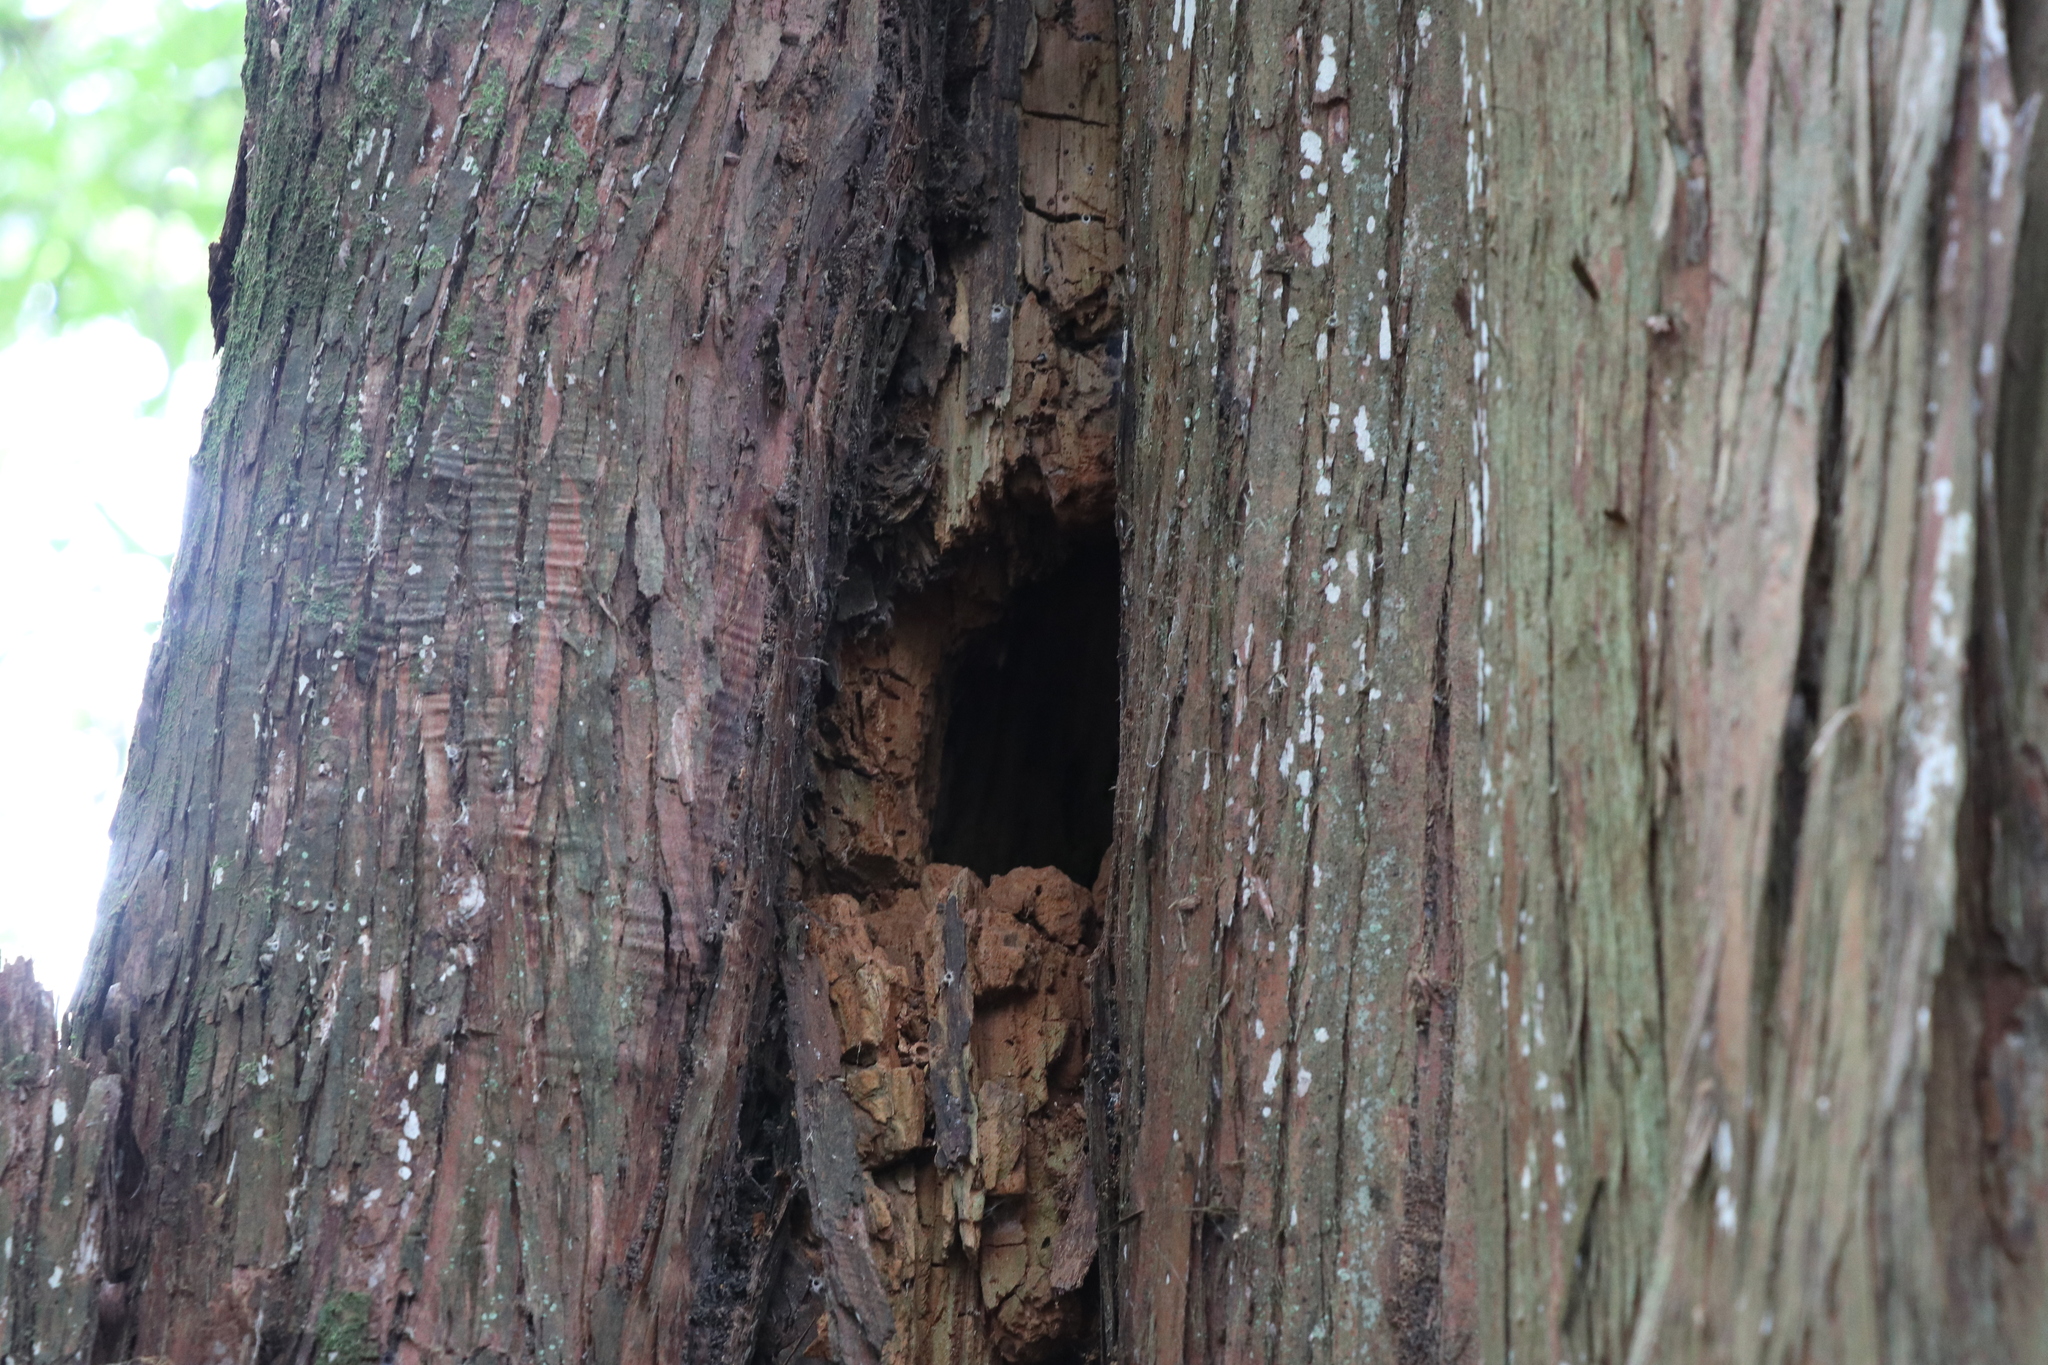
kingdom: Animalia
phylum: Chordata
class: Aves
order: Coraciiformes
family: Alcedinidae
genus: Todiramphus
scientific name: Todiramphus sanctus
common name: Sacred kingfisher
